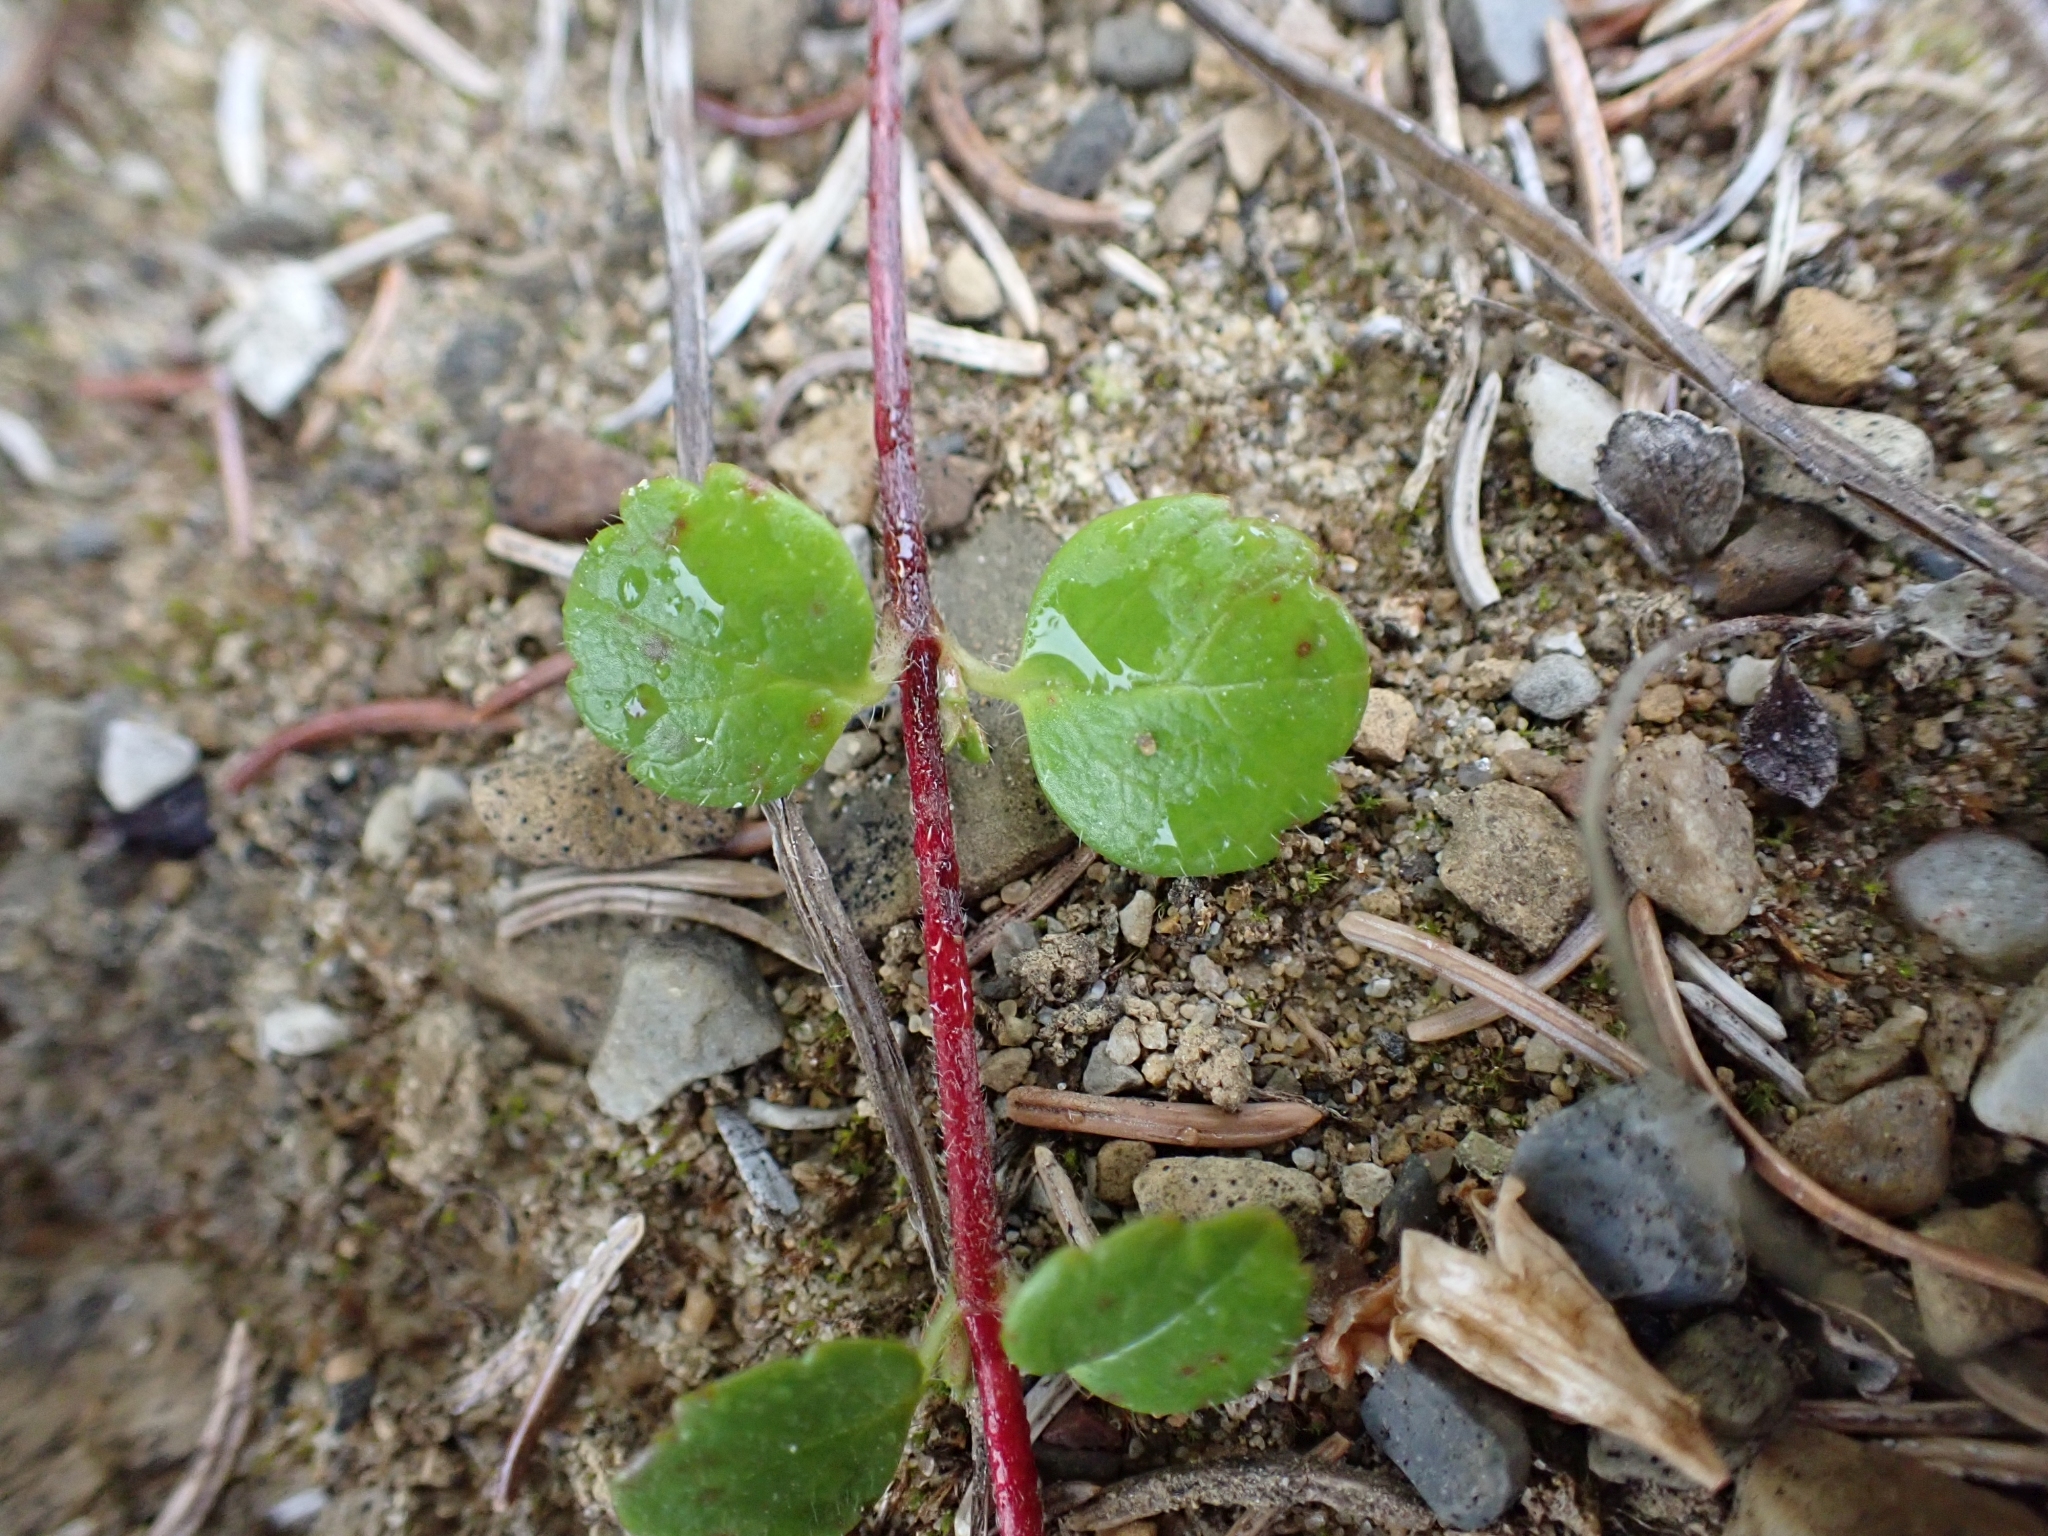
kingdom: Plantae
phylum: Tracheophyta
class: Magnoliopsida
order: Dipsacales
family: Caprifoliaceae
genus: Linnaea
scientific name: Linnaea borealis
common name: Twinflower
